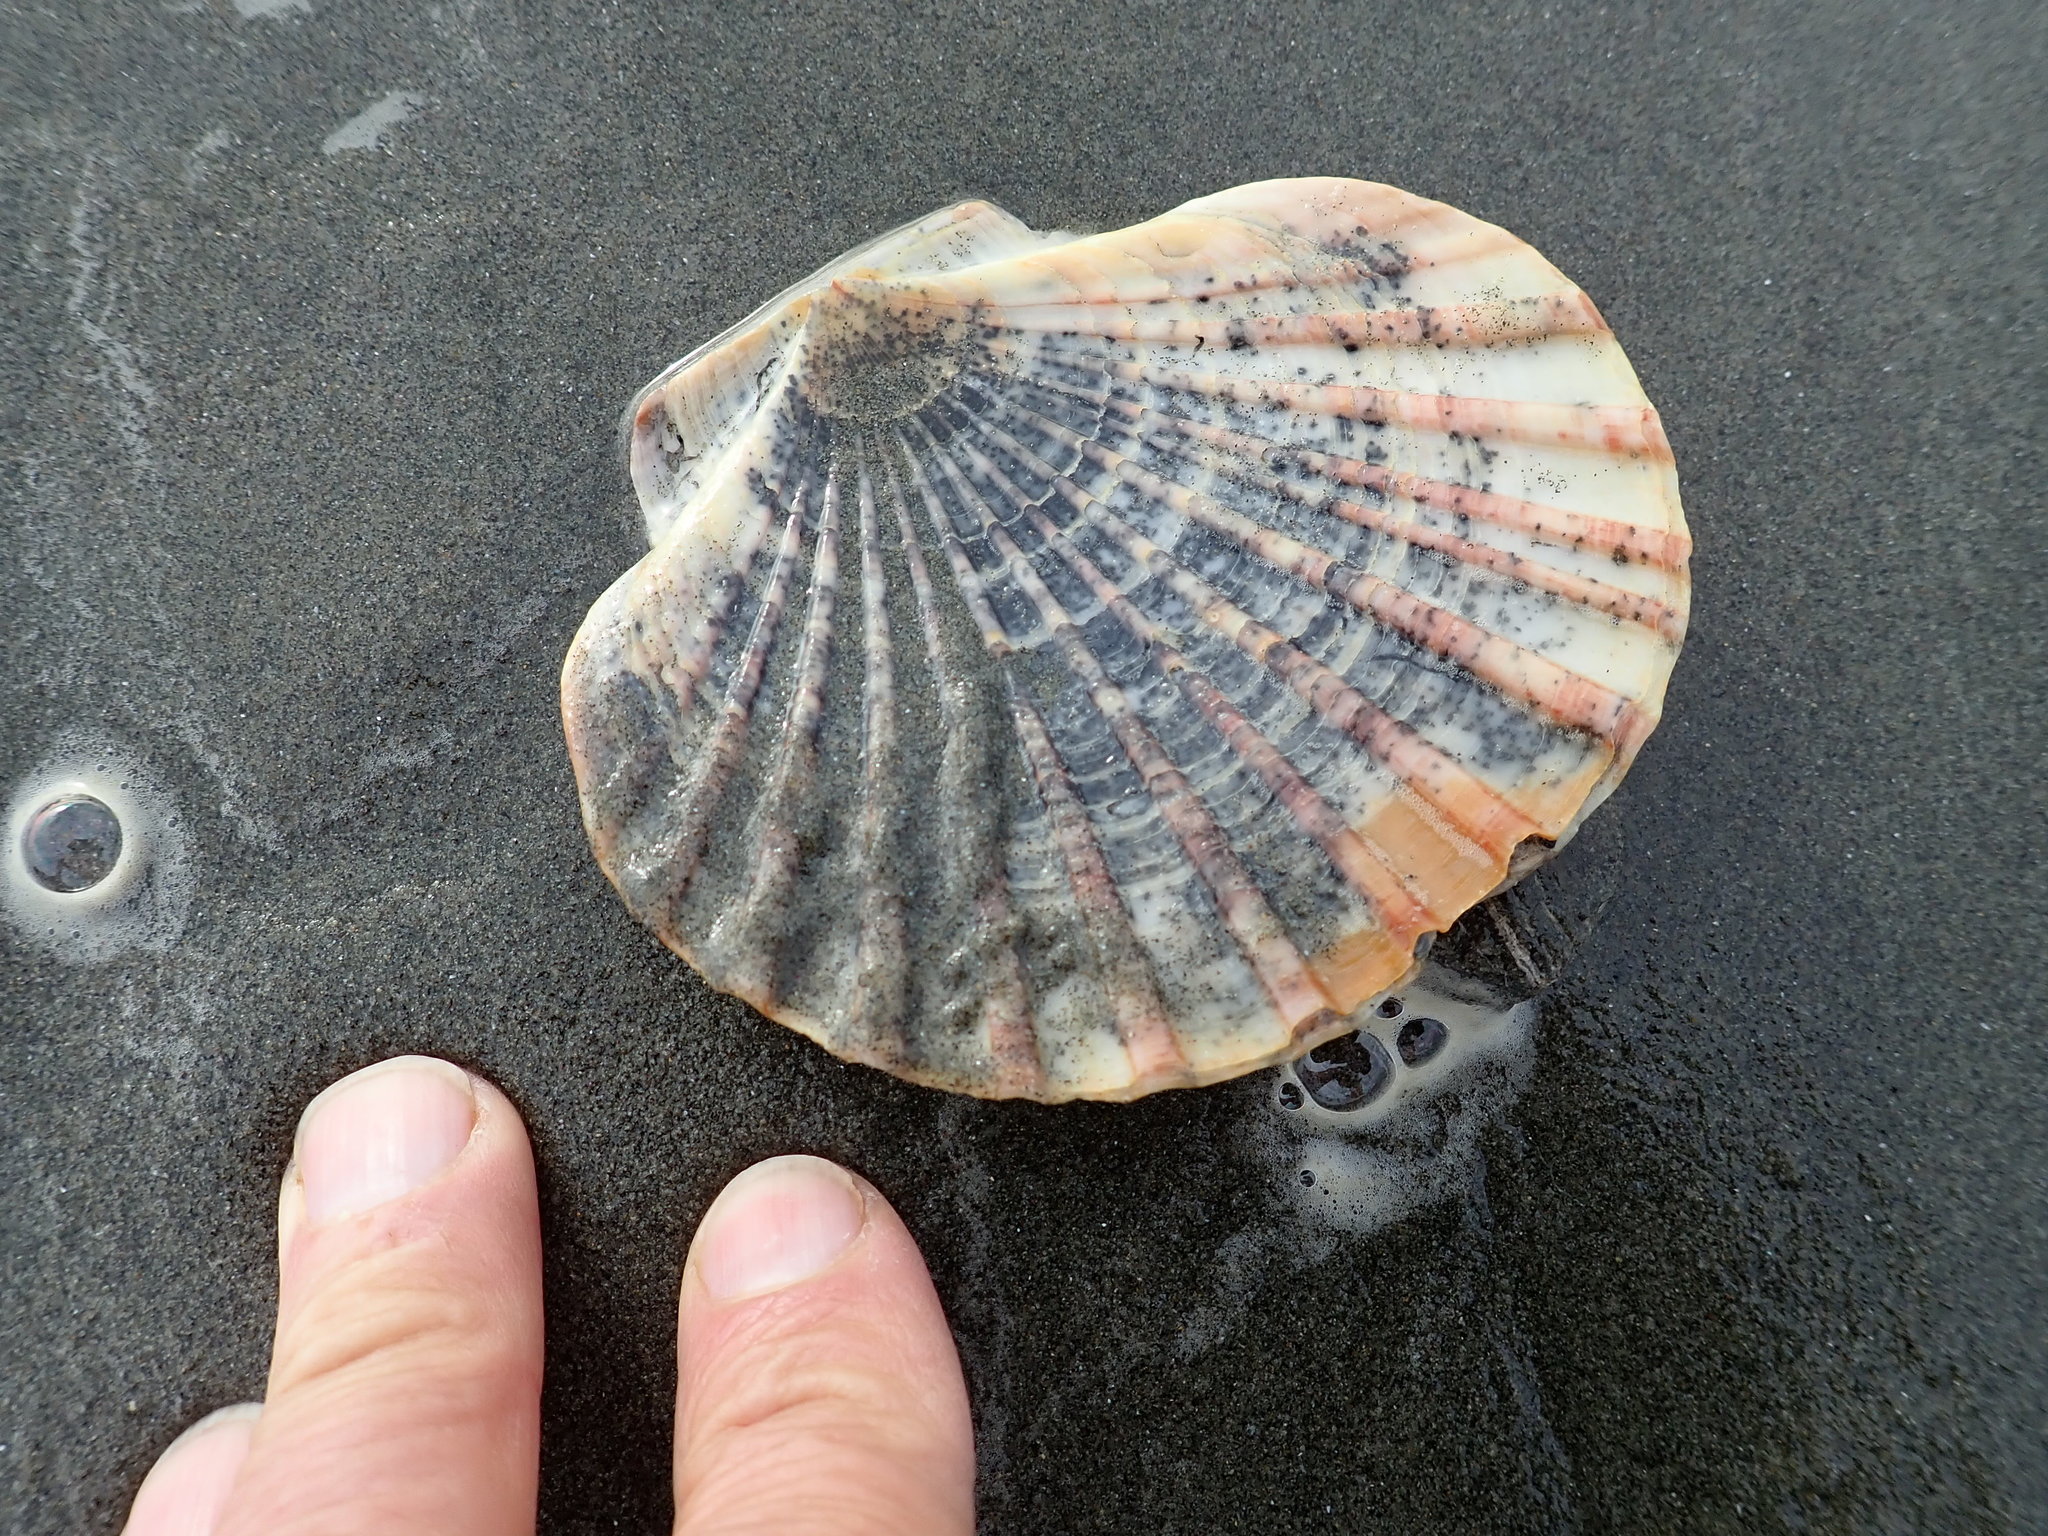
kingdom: Animalia
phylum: Mollusca
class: Bivalvia
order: Pectinida
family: Pectinidae
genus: Pecten
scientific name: Pecten novaezelandiae
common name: New zealand scallop
